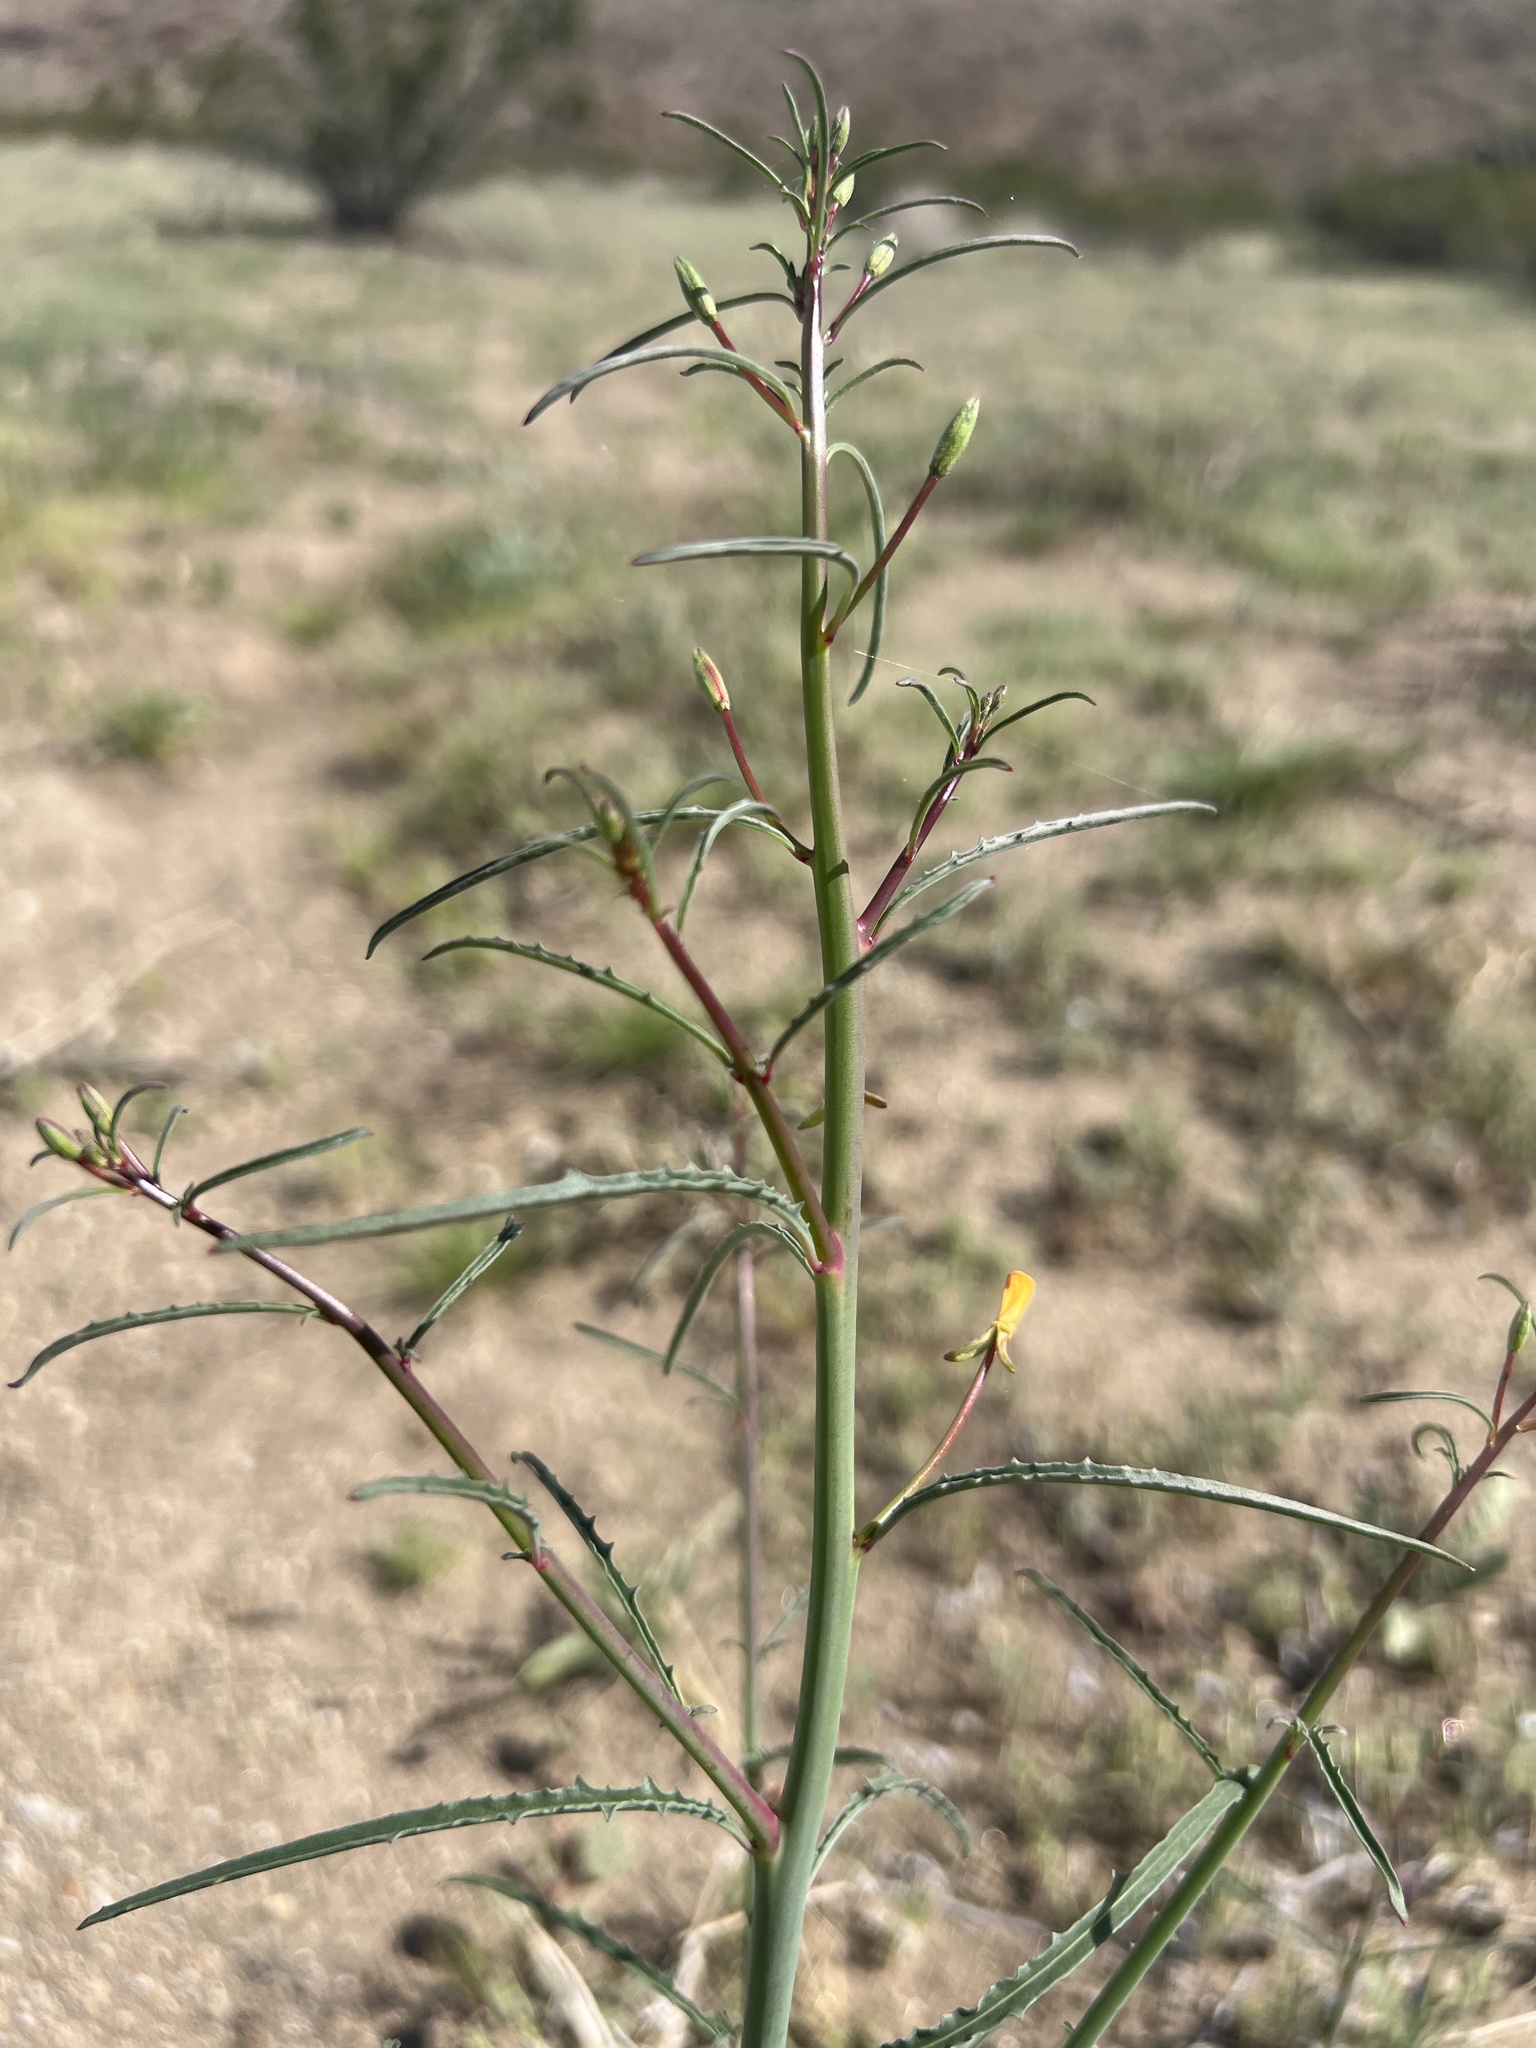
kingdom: Plantae
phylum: Tracheophyta
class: Magnoliopsida
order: Myrtales
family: Onagraceae
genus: Eulobus
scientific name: Eulobus californicus
